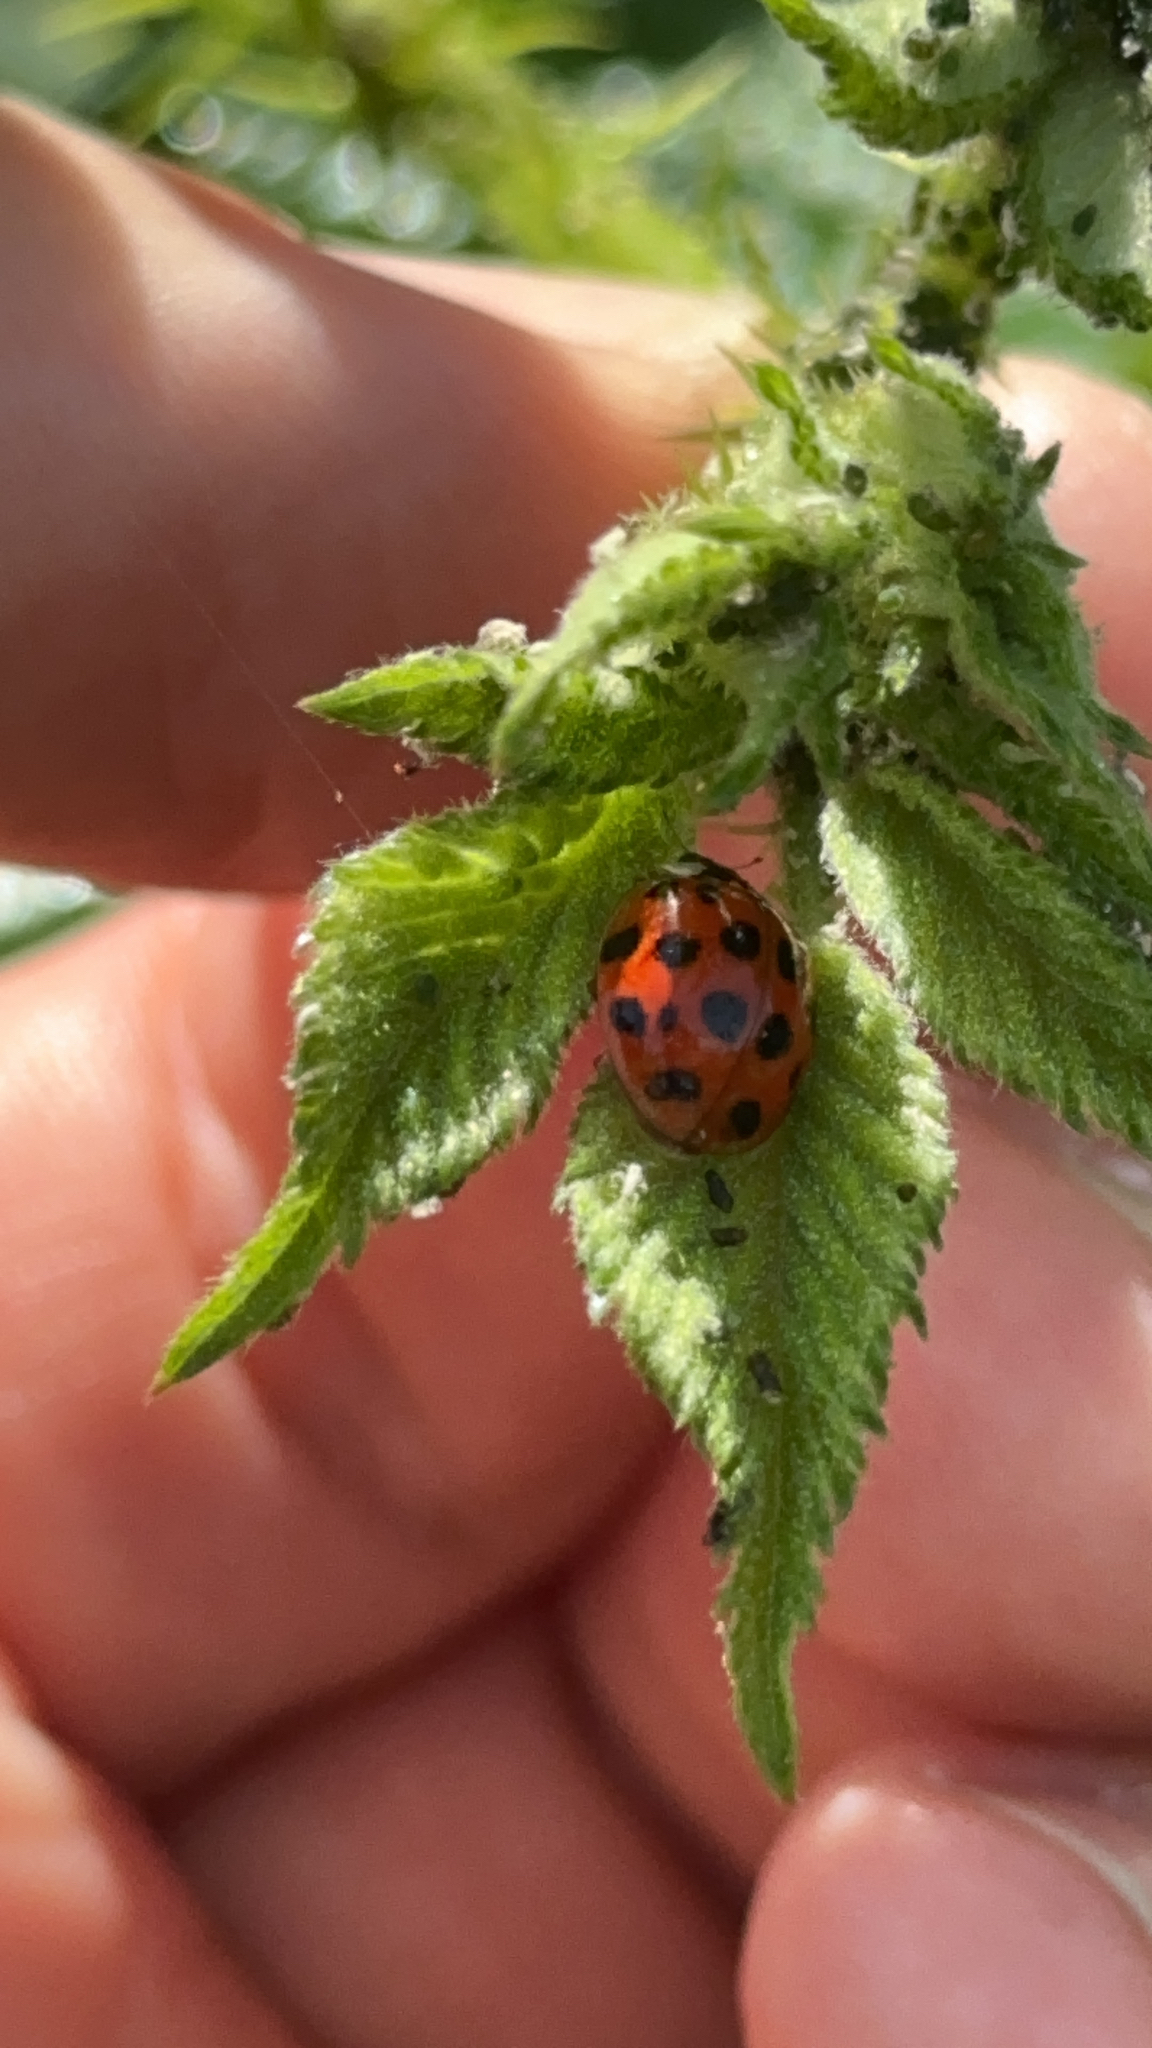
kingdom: Animalia
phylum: Arthropoda
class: Insecta
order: Coleoptera
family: Coccinellidae
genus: Harmonia
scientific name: Harmonia axyridis
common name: Harlequin ladybird
